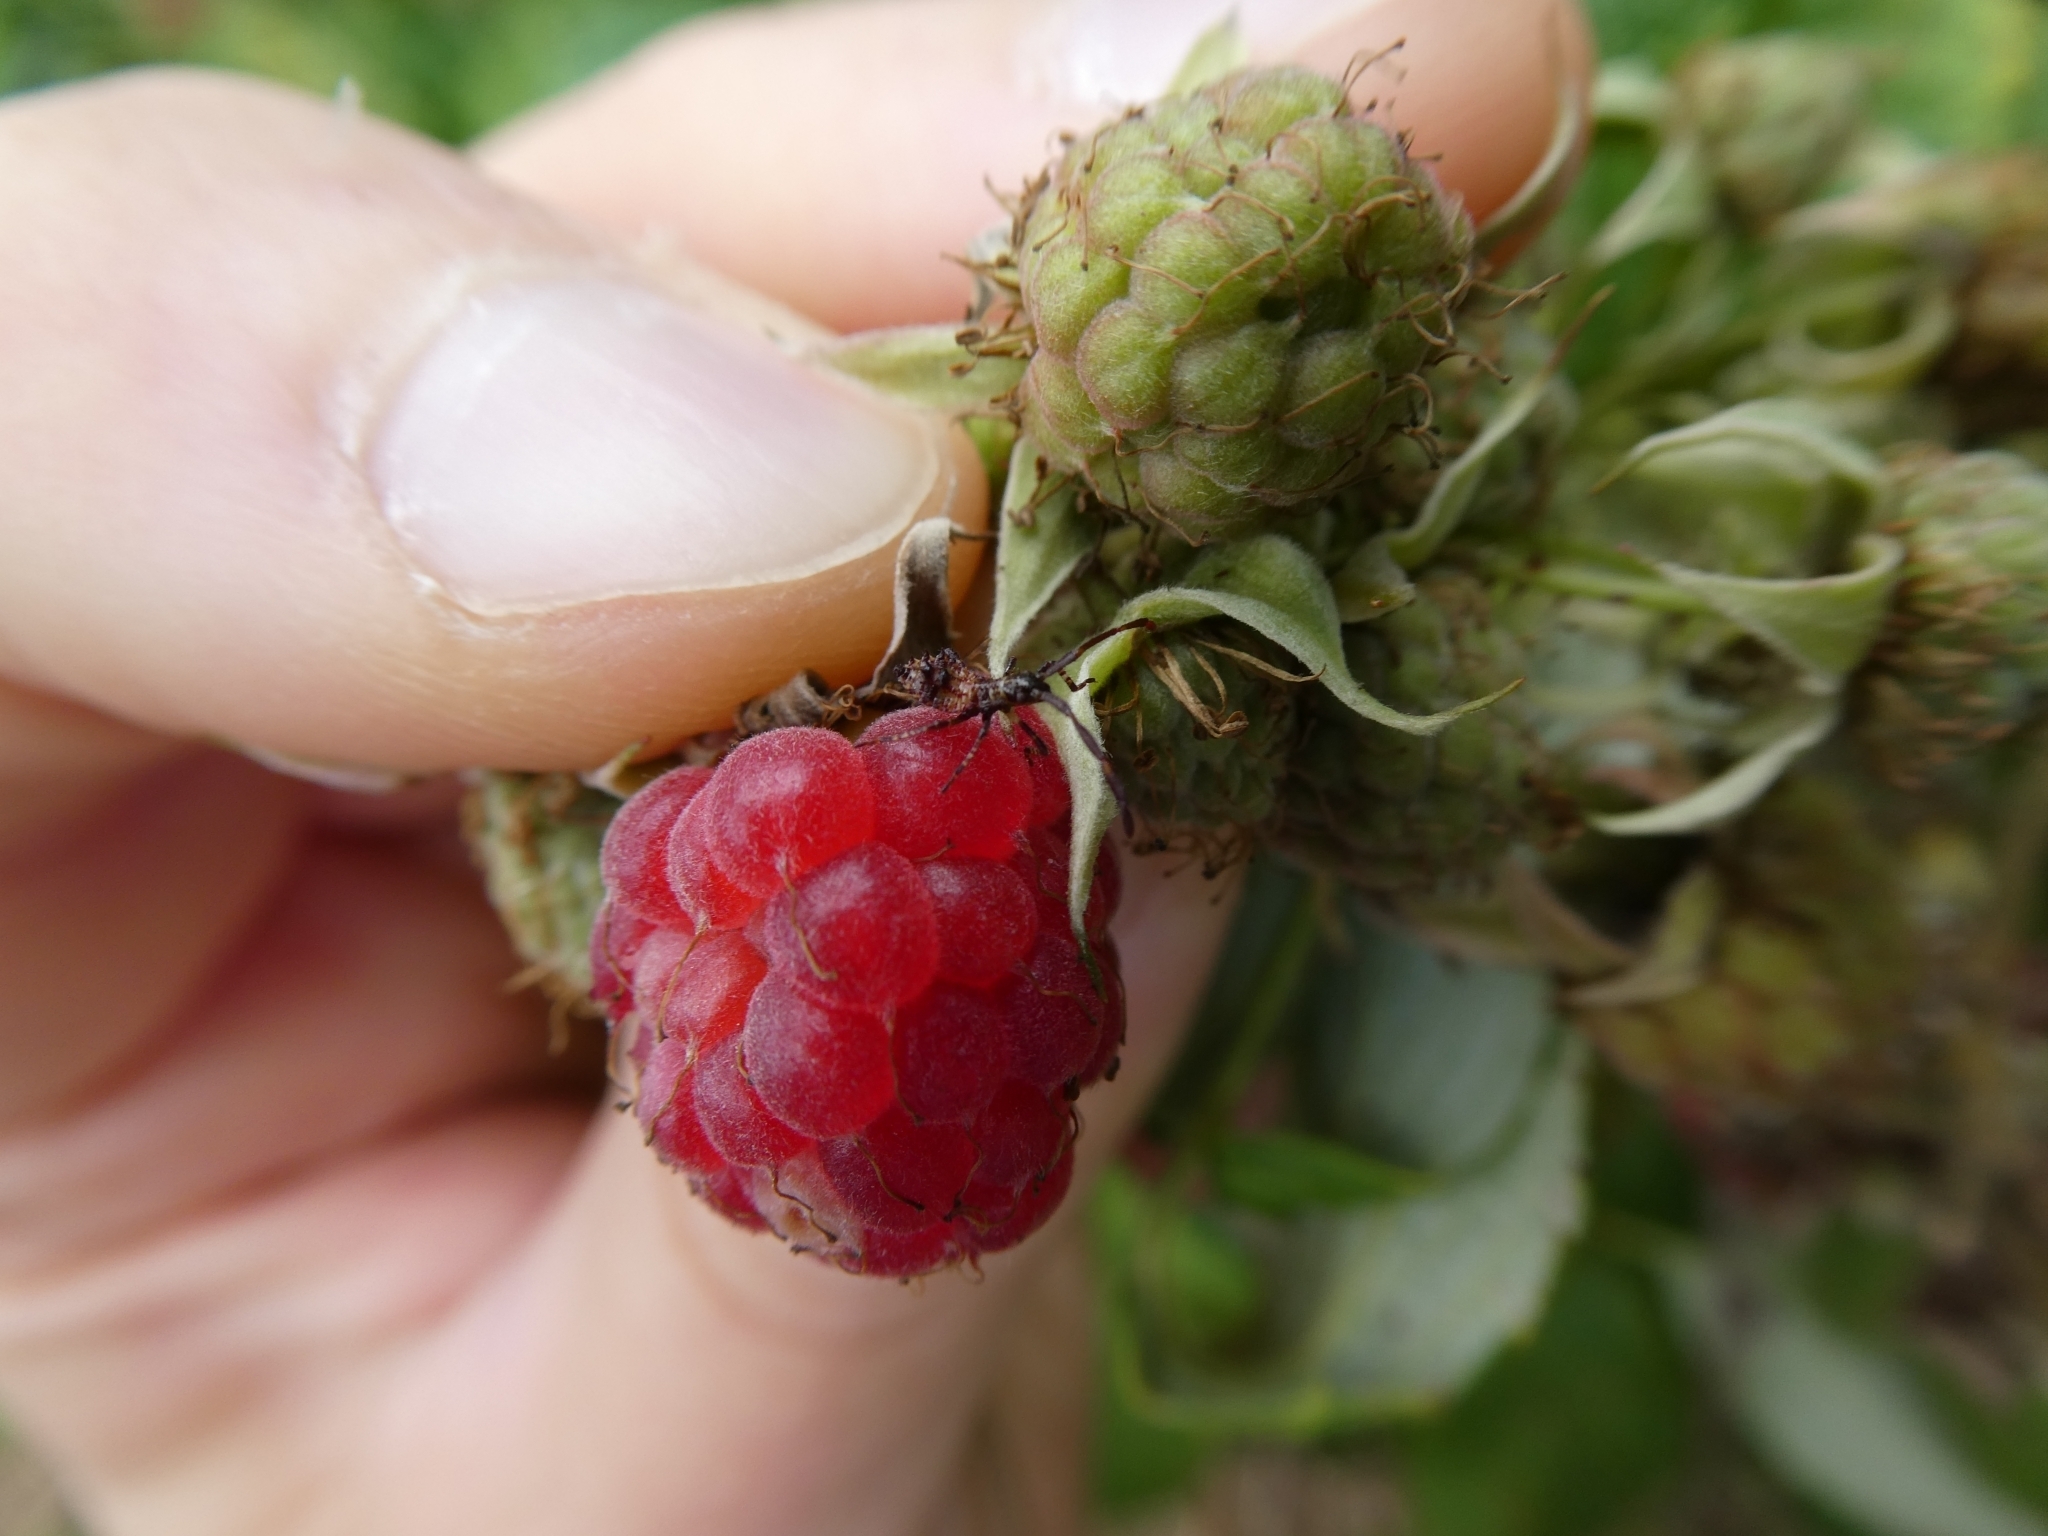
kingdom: Animalia
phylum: Arthropoda
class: Insecta
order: Hemiptera
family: Coreidae
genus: Coreus
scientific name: Coreus marginatus
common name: Dock bug
